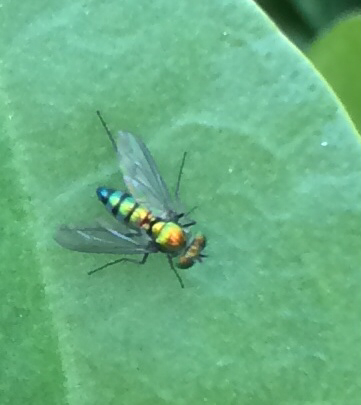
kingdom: Animalia
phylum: Arthropoda
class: Insecta
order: Diptera
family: Dolichopodidae
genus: Condylostylus
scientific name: Condylostylus longicornis
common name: Long-legged fly
